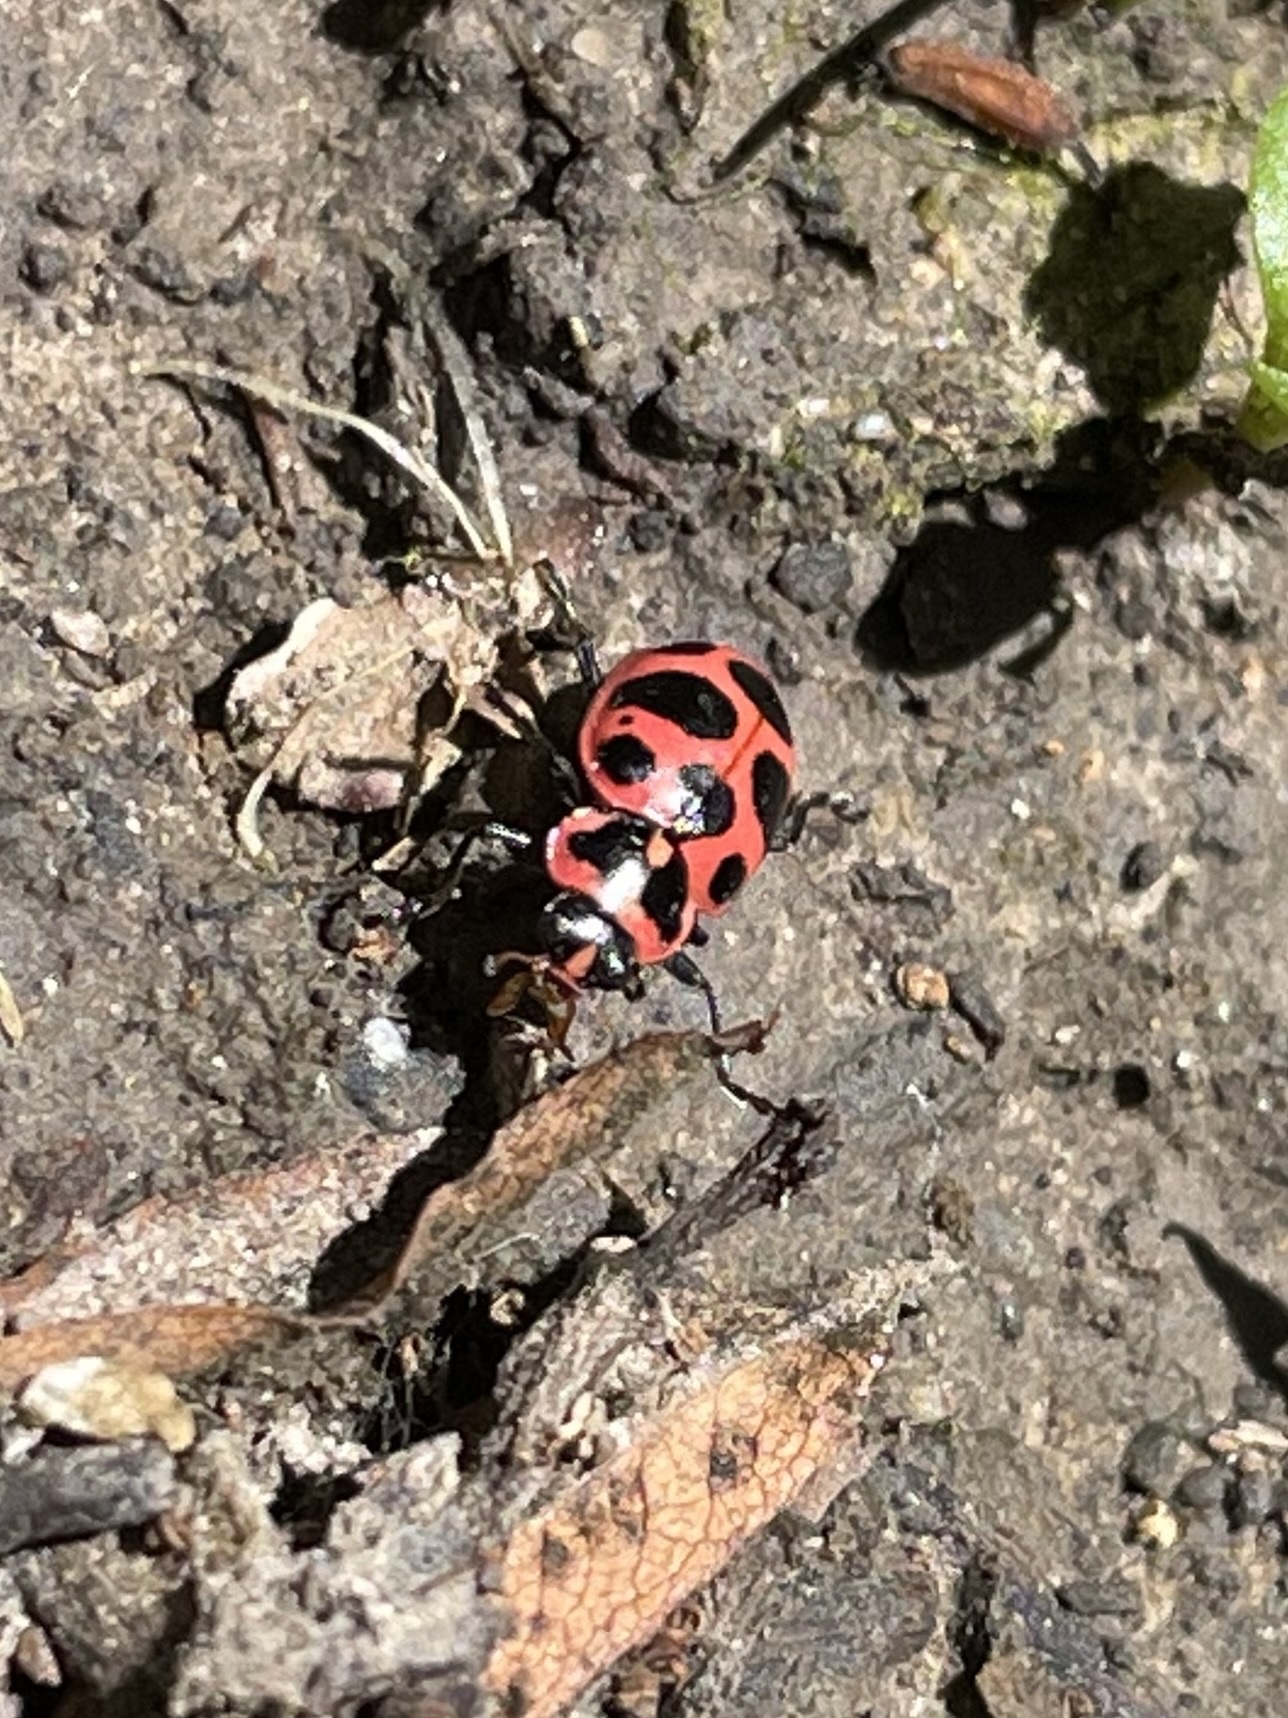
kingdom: Animalia
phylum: Arthropoda
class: Insecta
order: Coleoptera
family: Coccinellidae
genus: Coleomegilla
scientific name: Coleomegilla maculata
